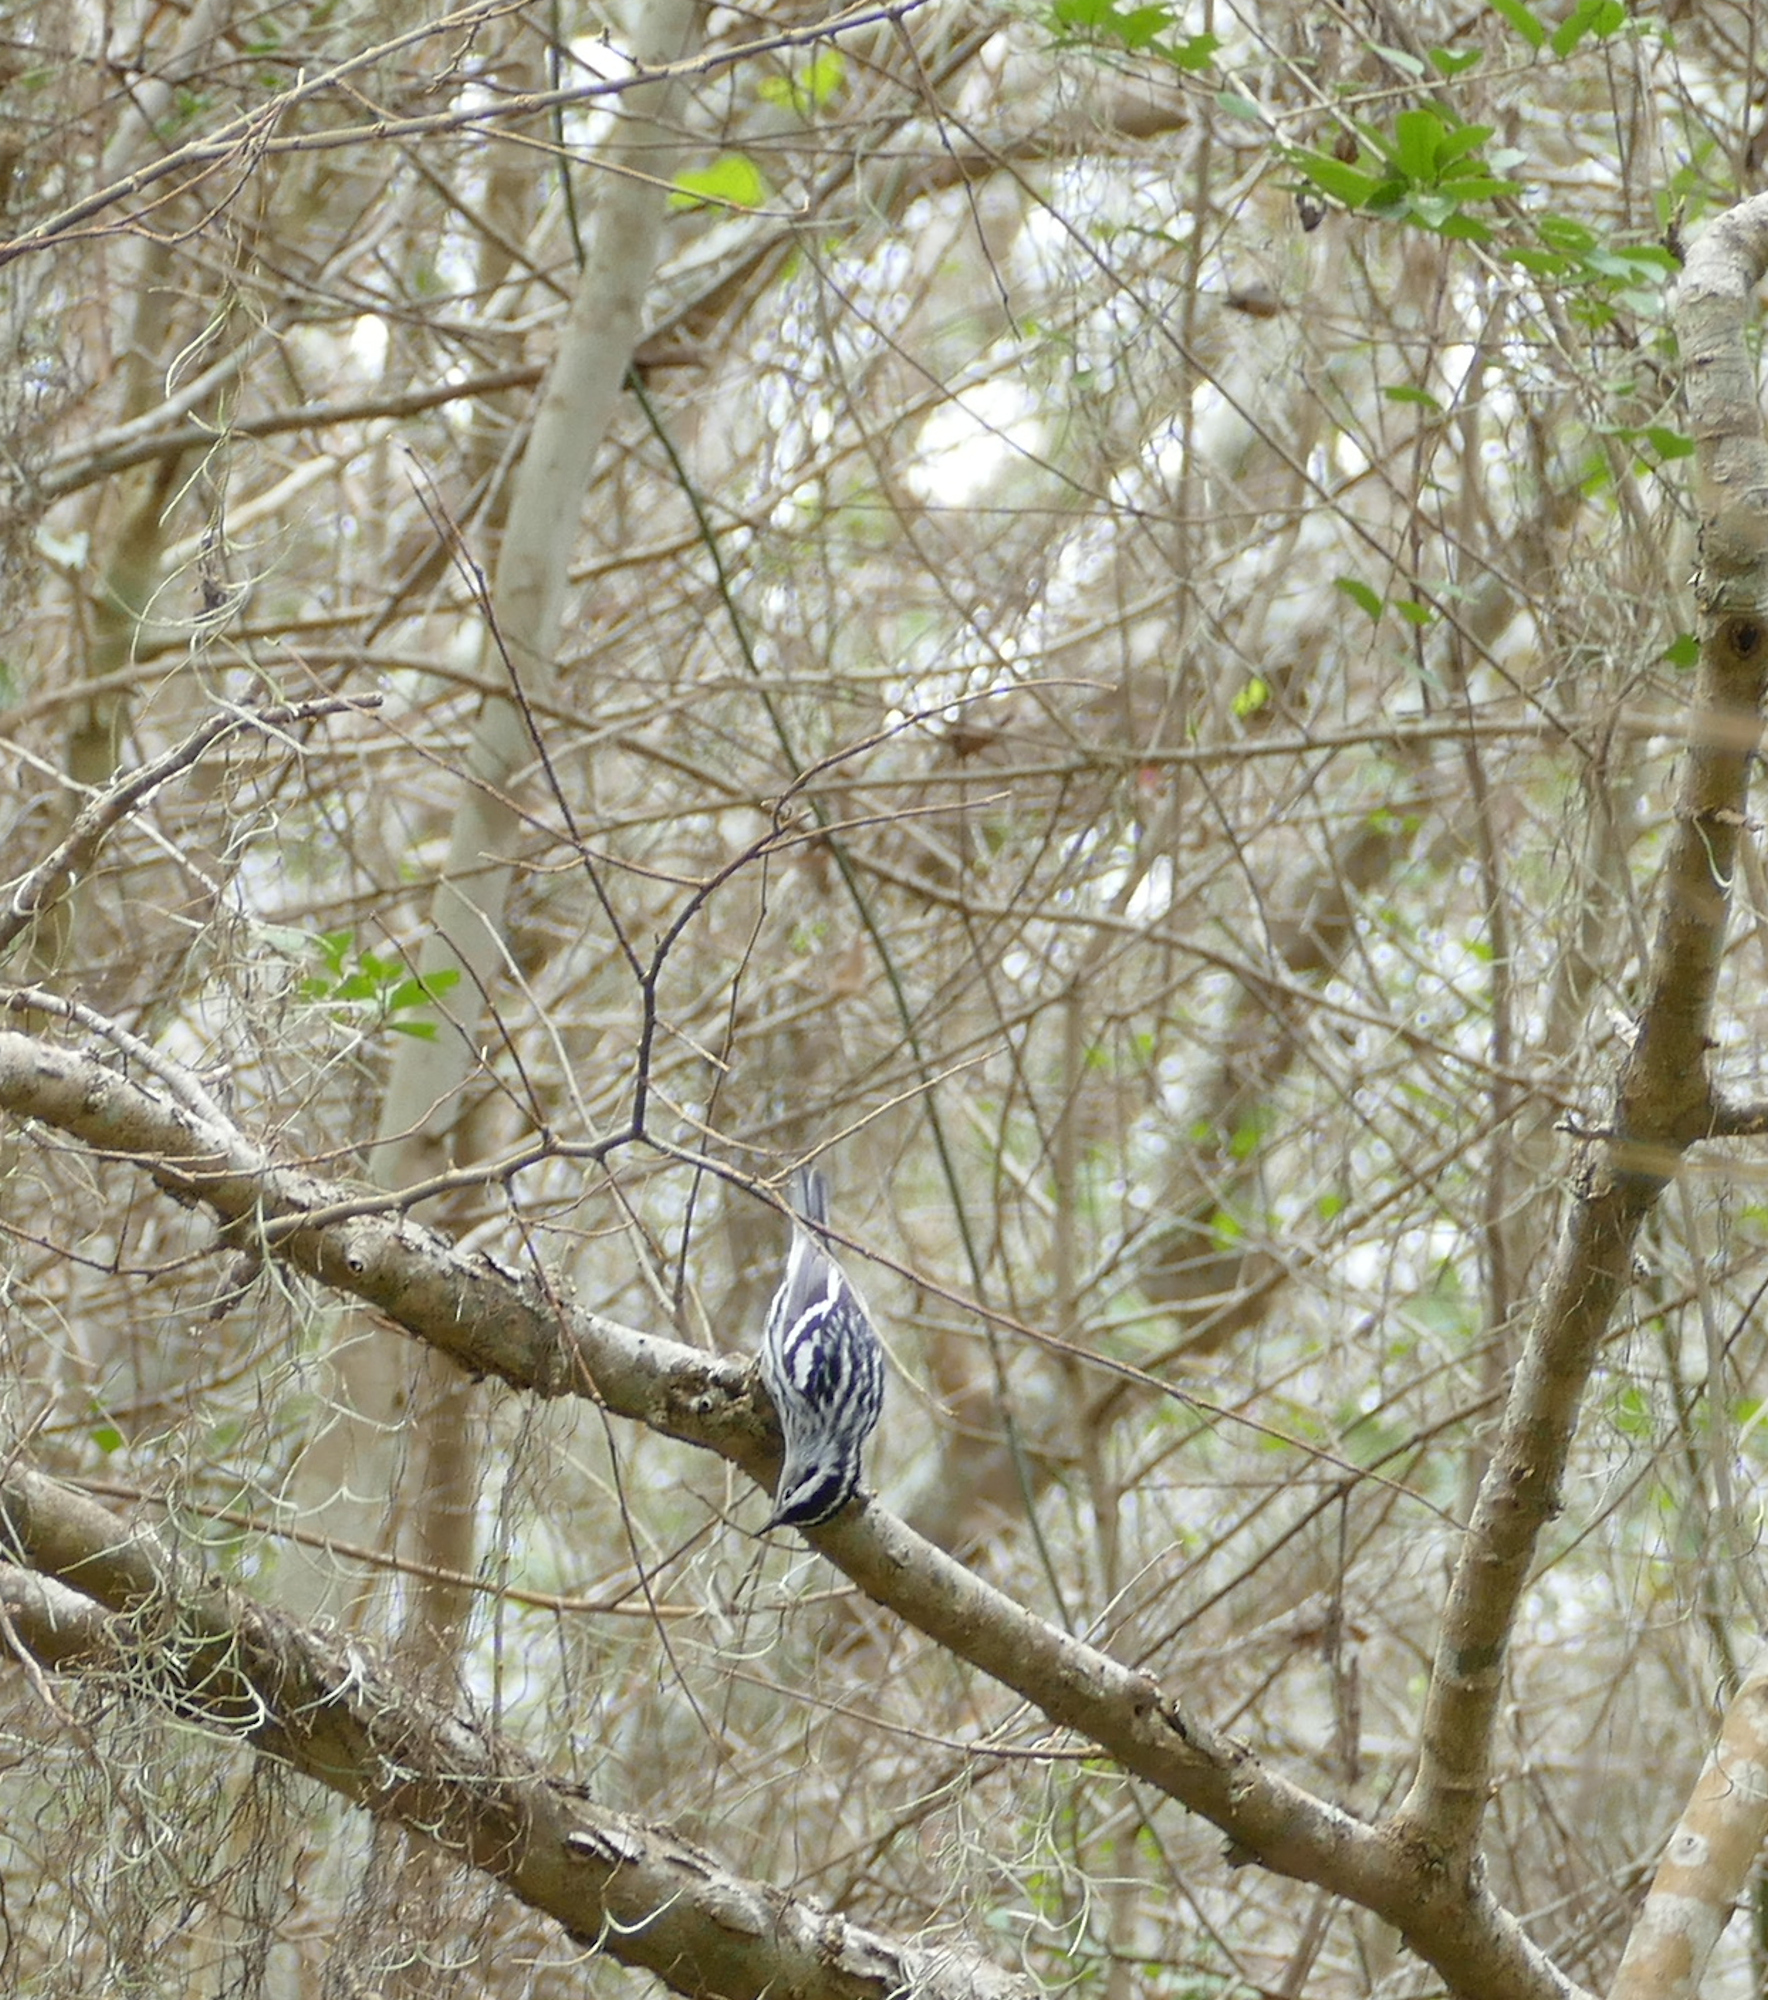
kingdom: Animalia
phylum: Chordata
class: Aves
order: Passeriformes
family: Parulidae
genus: Mniotilta
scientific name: Mniotilta varia
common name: Black-and-white warbler
